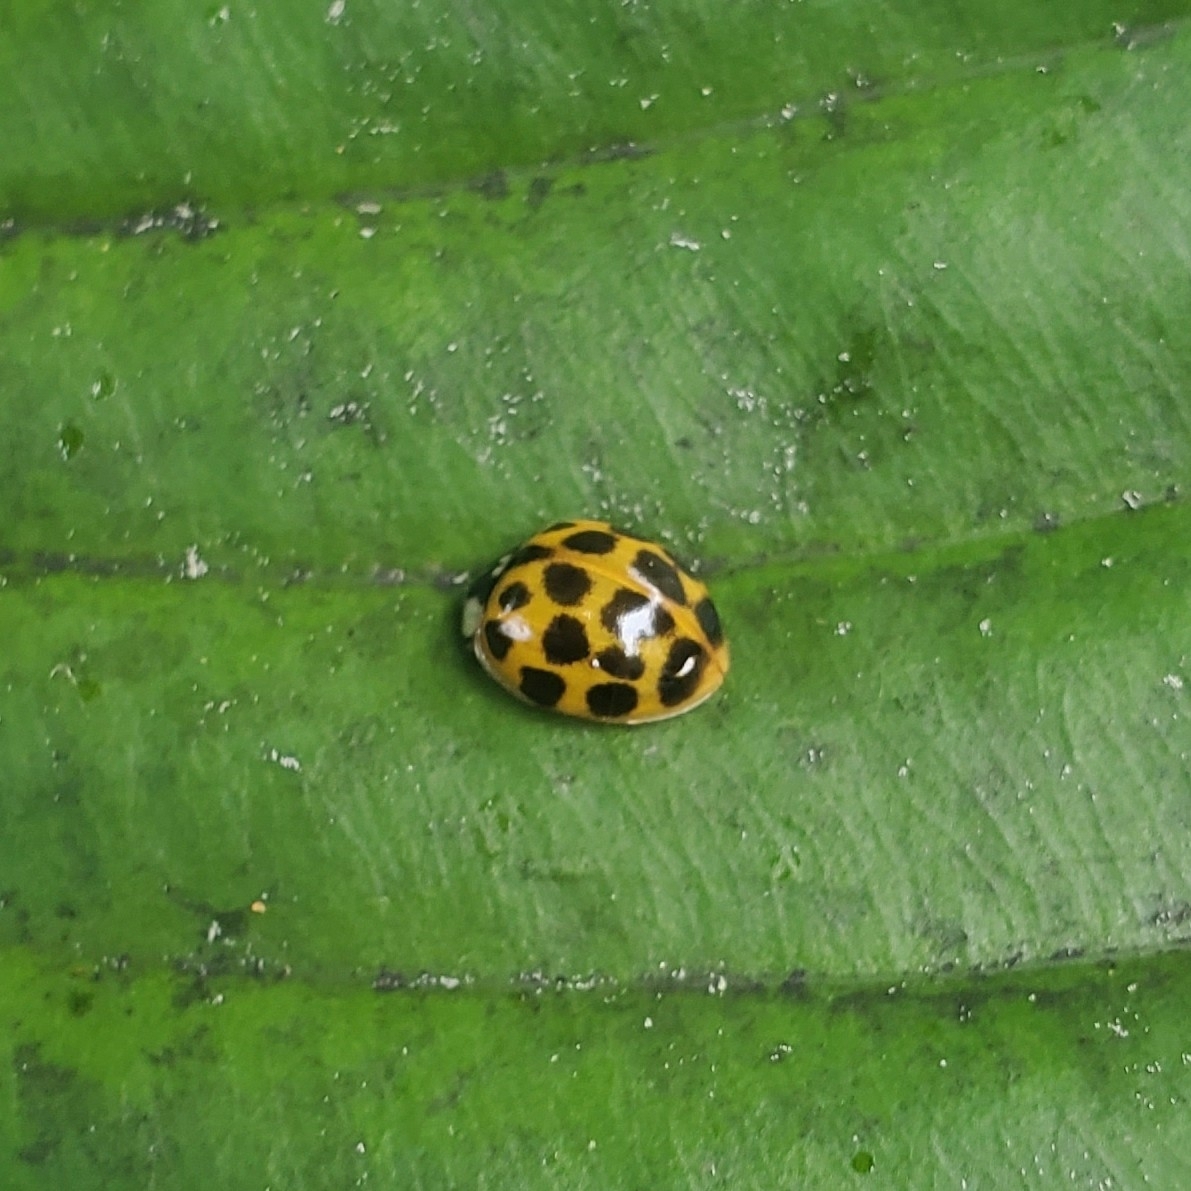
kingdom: Animalia
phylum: Arthropoda
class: Insecta
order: Coleoptera
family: Coccinellidae
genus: Harmonia
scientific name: Harmonia axyridis
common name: Harlequin ladybird
